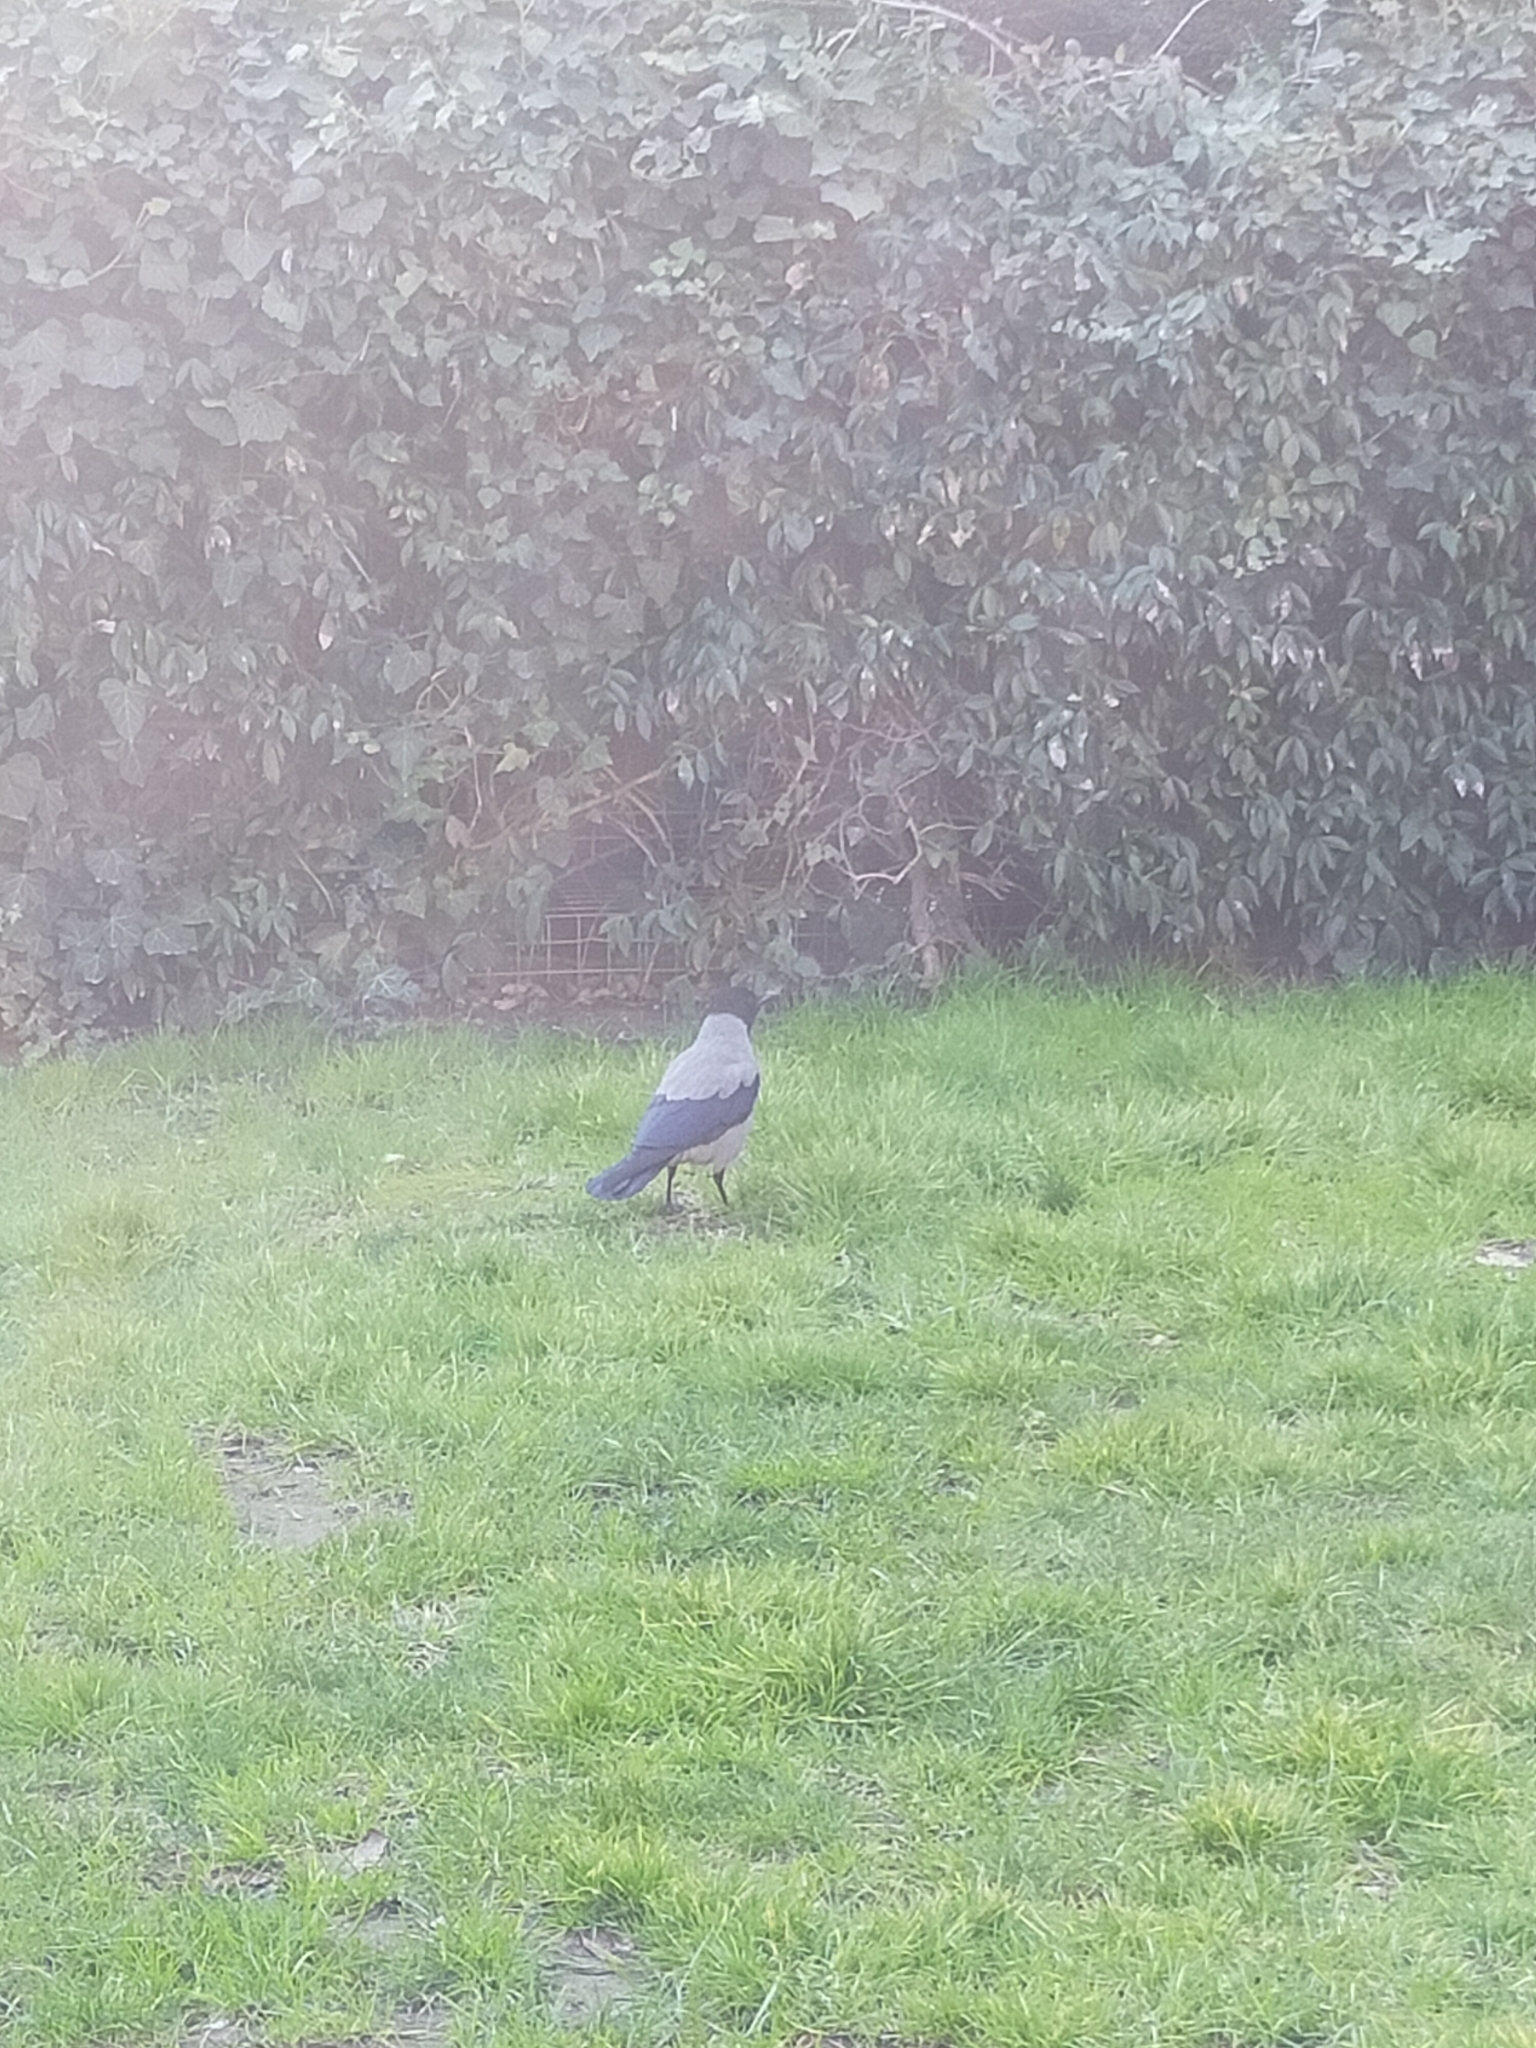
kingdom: Animalia
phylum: Chordata
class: Aves
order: Passeriformes
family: Corvidae
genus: Corvus
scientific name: Corvus cornix
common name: Hooded crow
